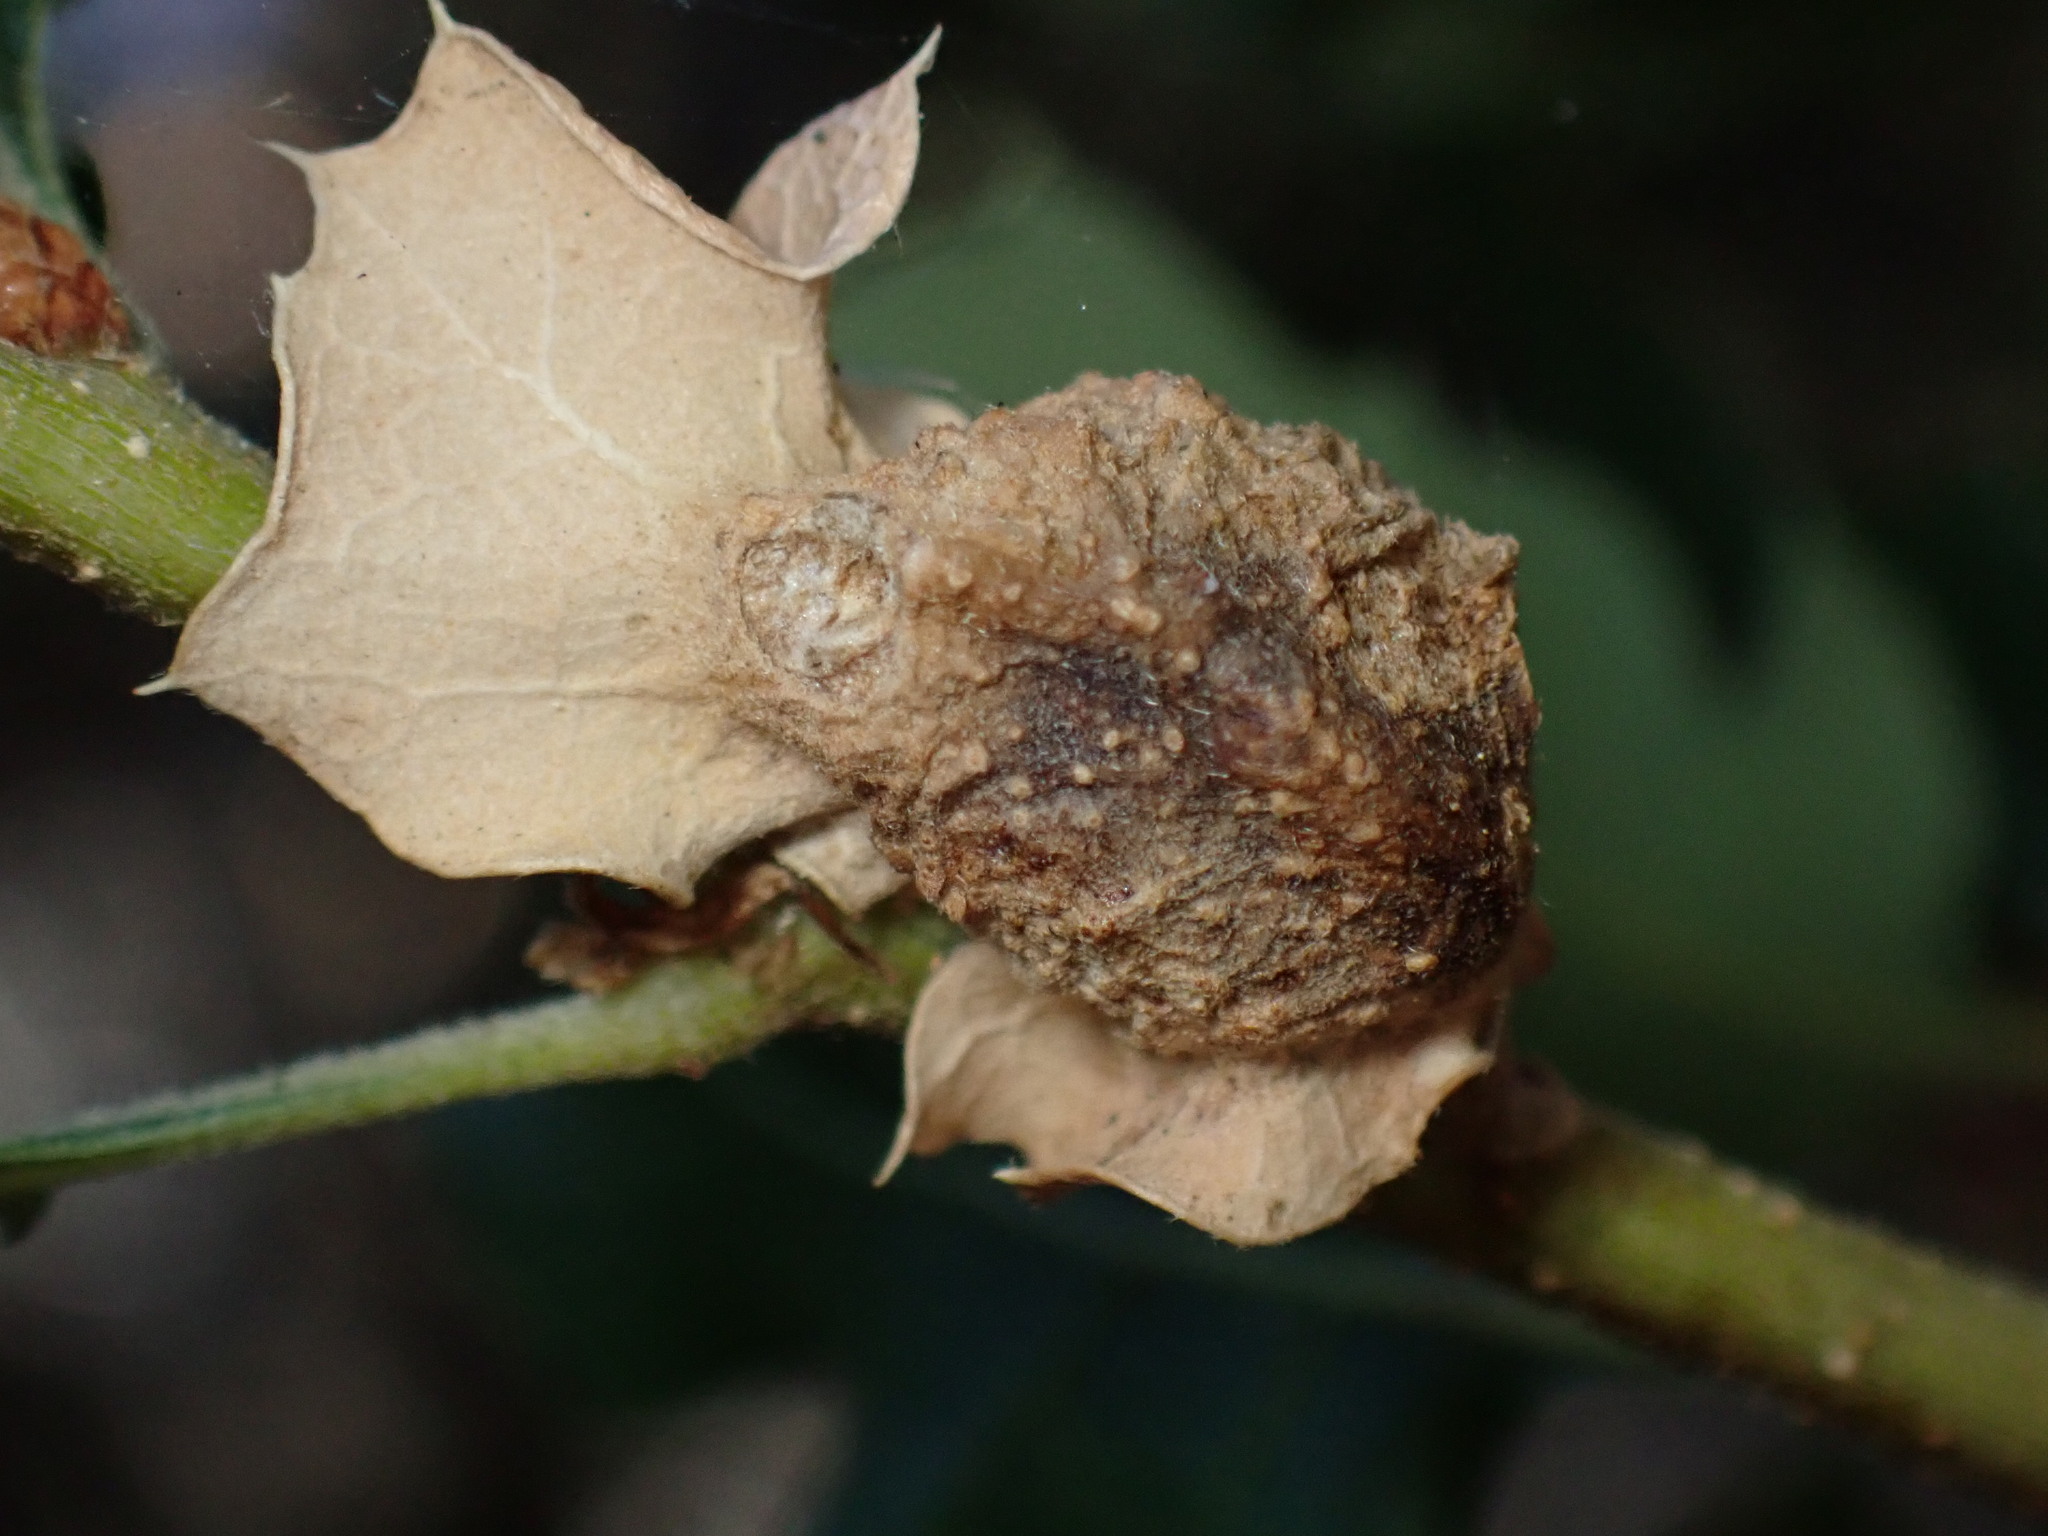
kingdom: Animalia
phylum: Arthropoda
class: Insecta
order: Hymenoptera
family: Cynipidae
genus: Neuroterus
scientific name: Neuroterus
